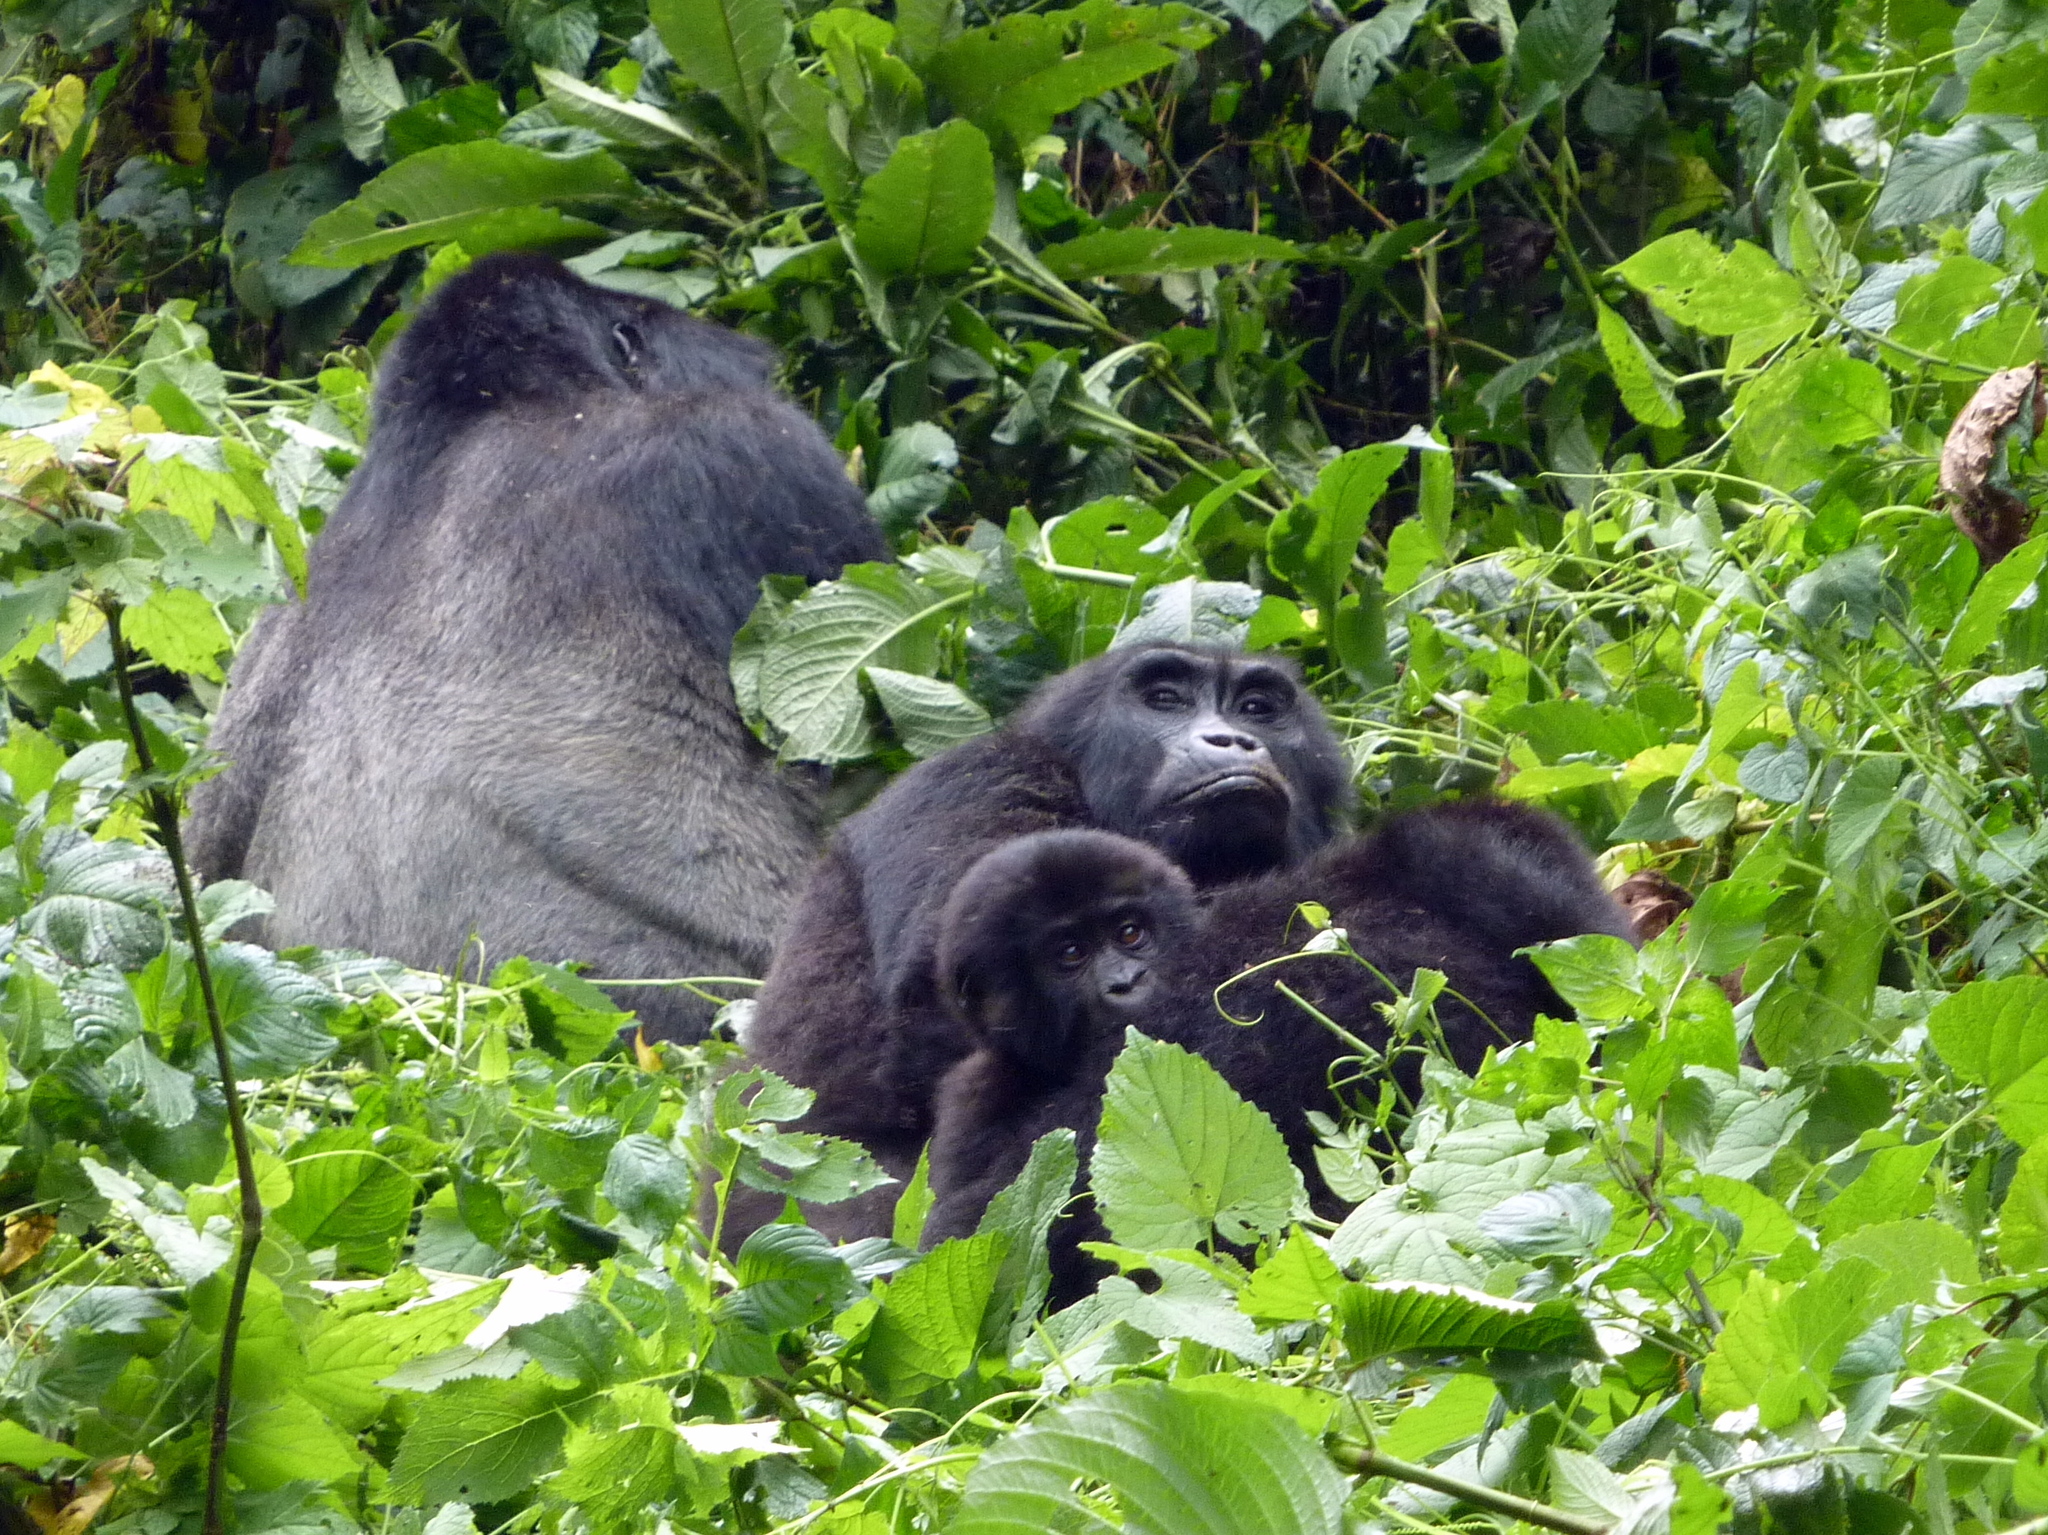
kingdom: Animalia
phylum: Chordata
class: Mammalia
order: Primates
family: Hominidae
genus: Gorilla
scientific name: Gorilla beringei
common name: Eastern gorilla
